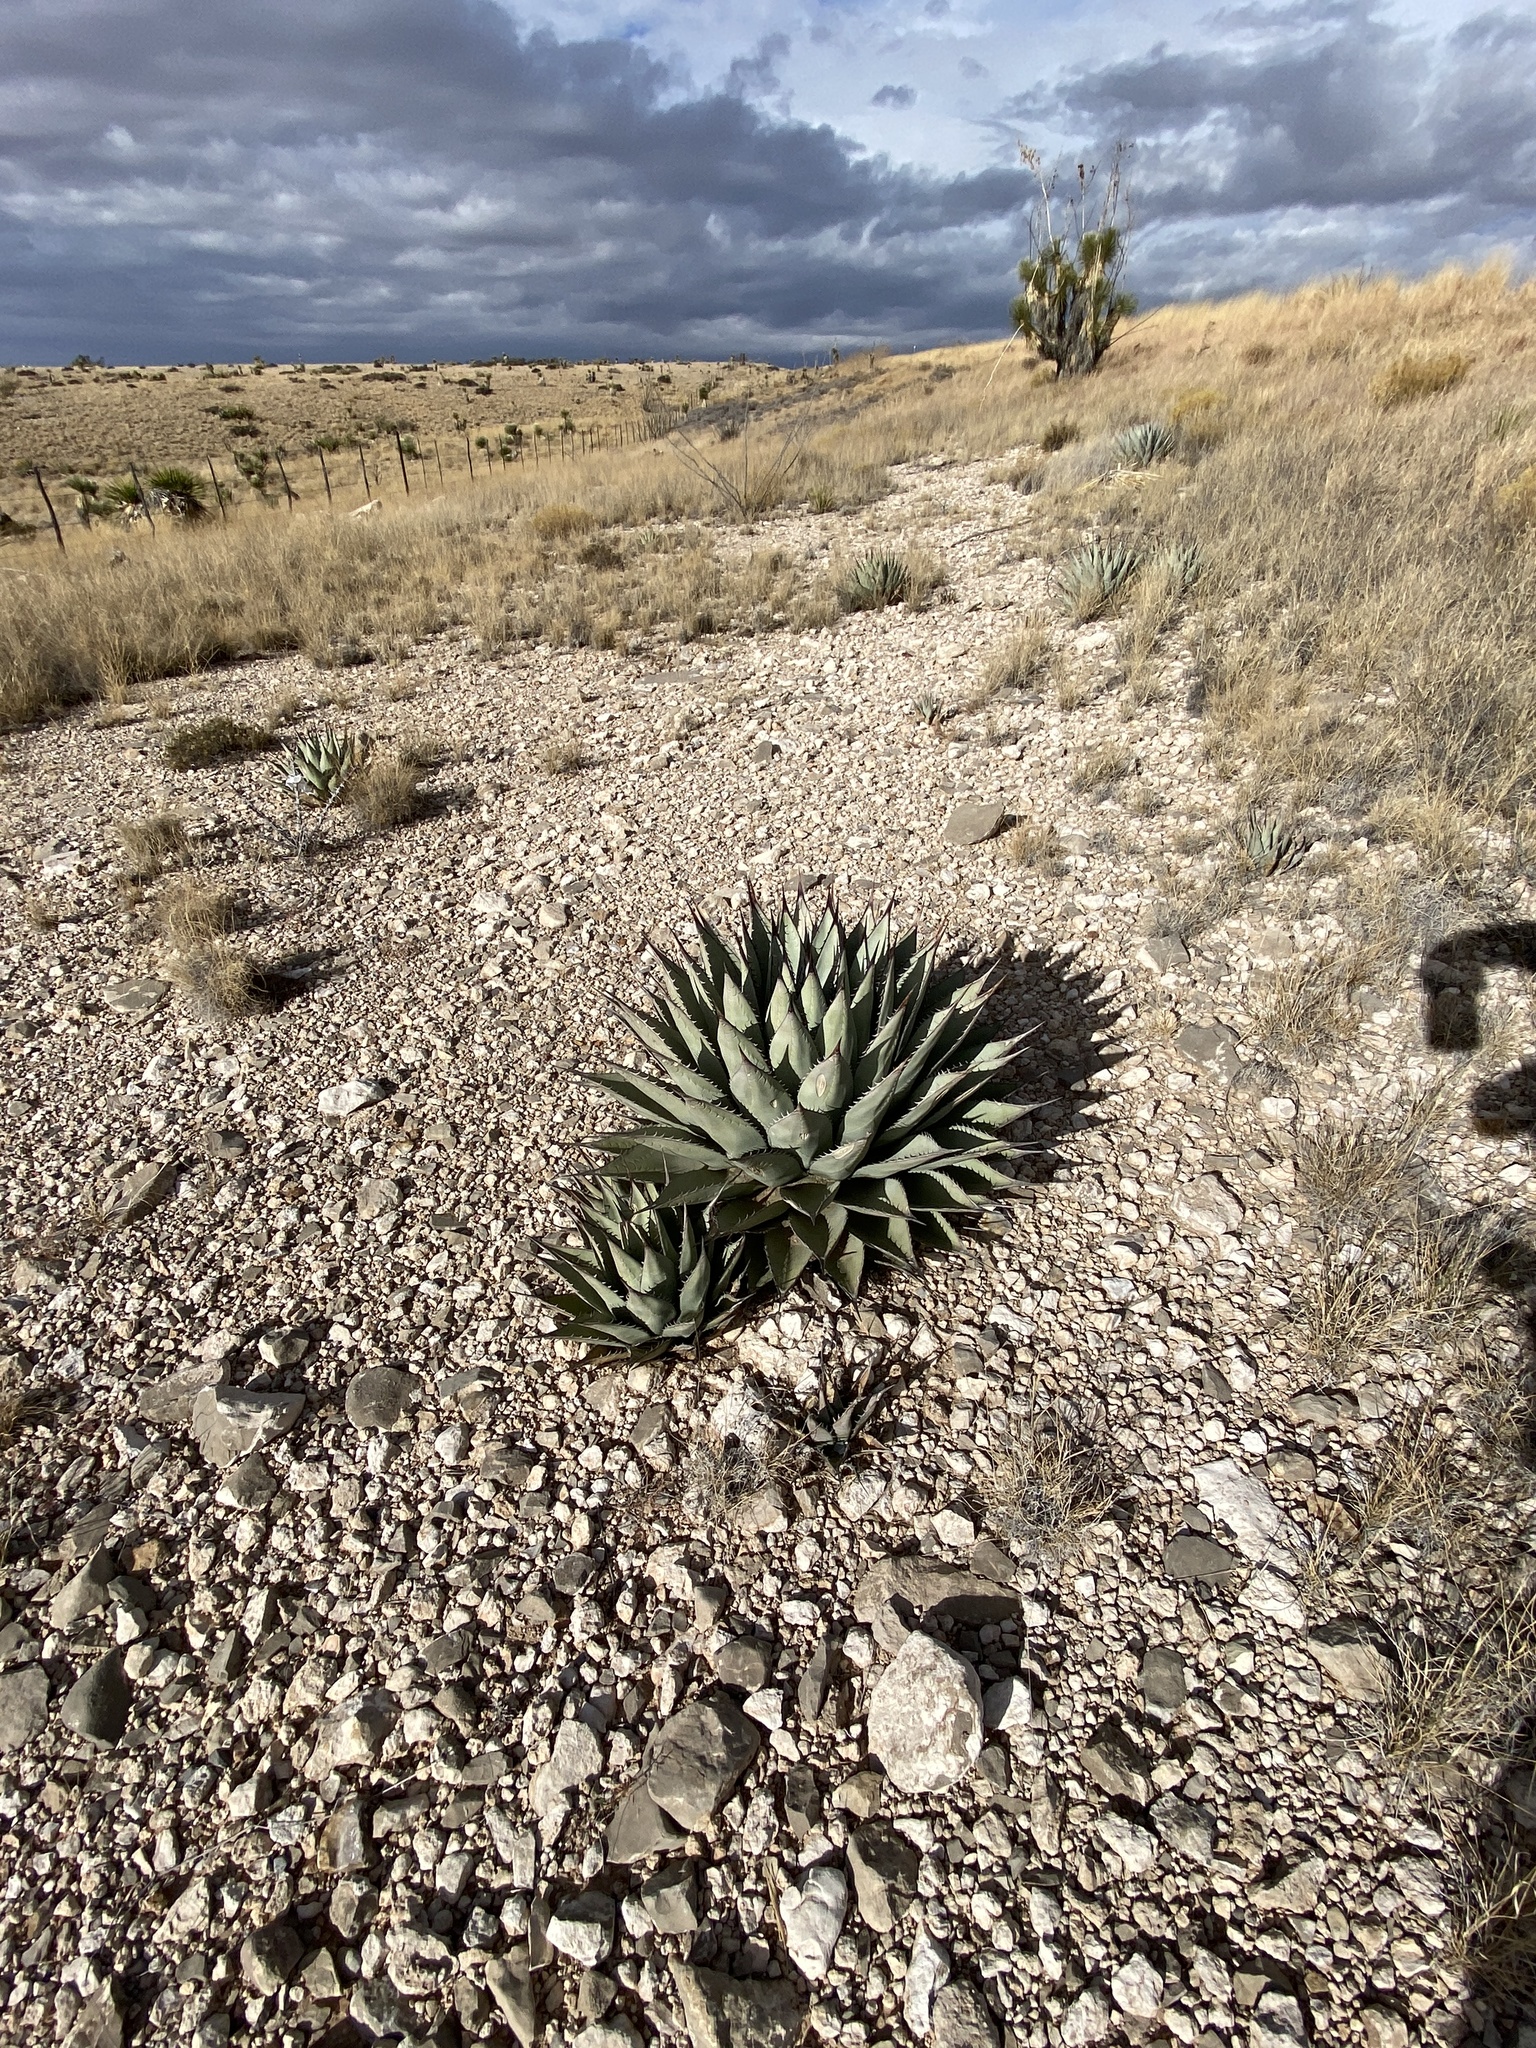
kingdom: Plantae
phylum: Tracheophyta
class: Liliopsida
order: Asparagales
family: Asparagaceae
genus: Agave
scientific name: Agave parryi
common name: Parry's agave
